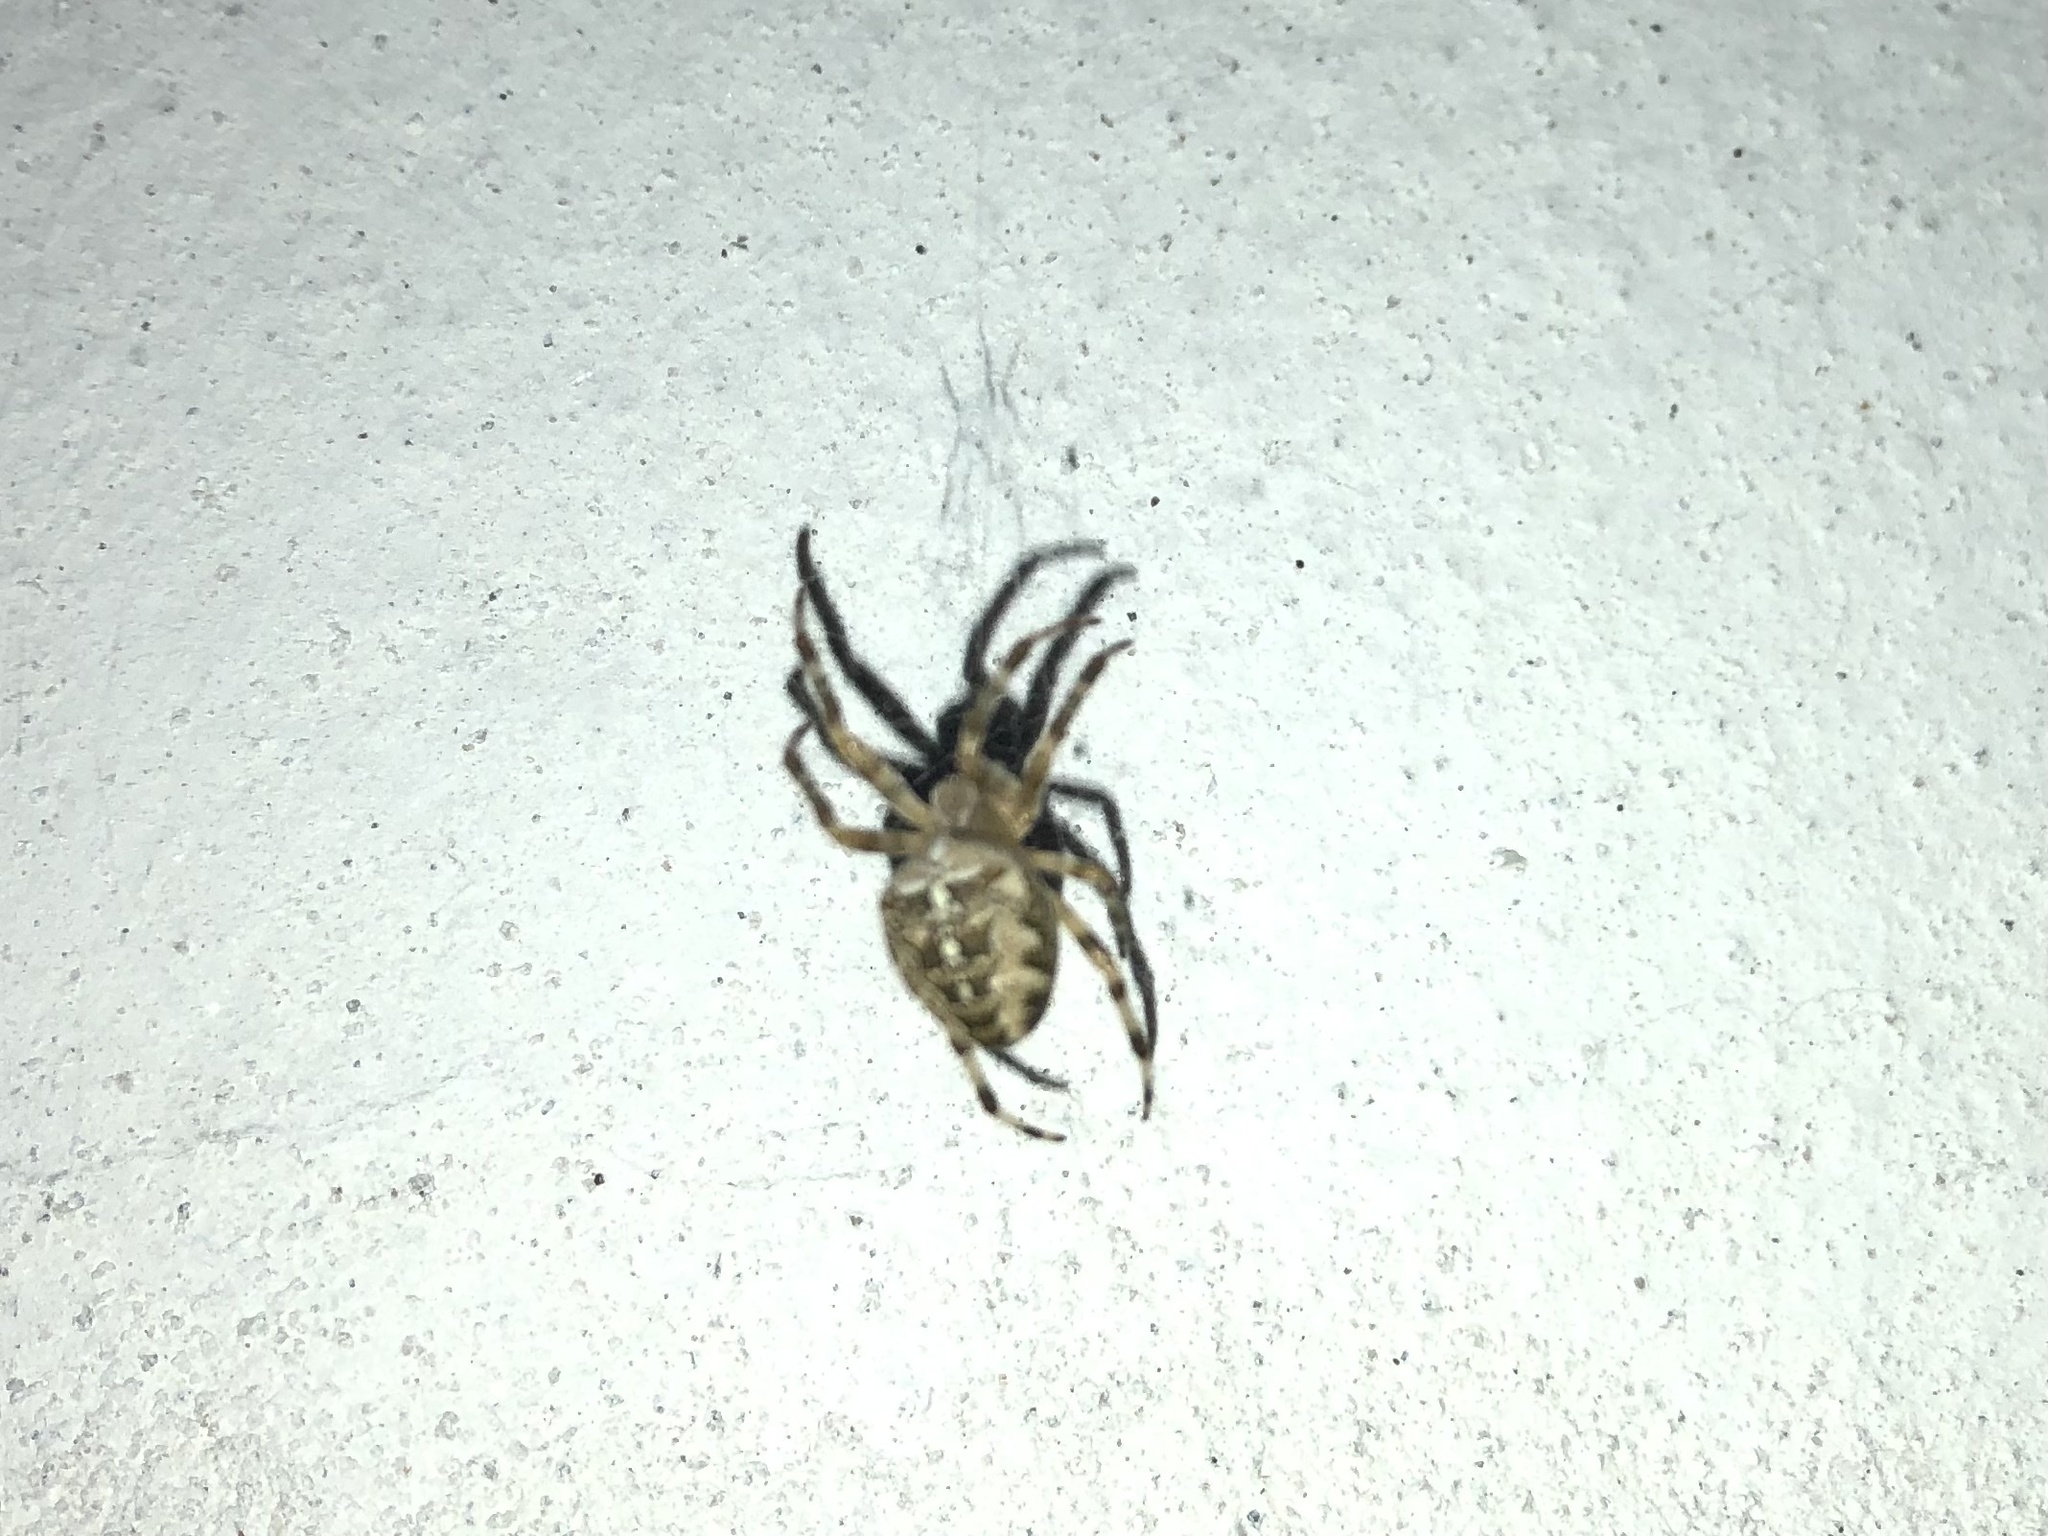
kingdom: Animalia
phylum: Arthropoda
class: Arachnida
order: Araneae
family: Araneidae
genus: Araneus
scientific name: Araneus diadematus
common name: Cross orbweaver
